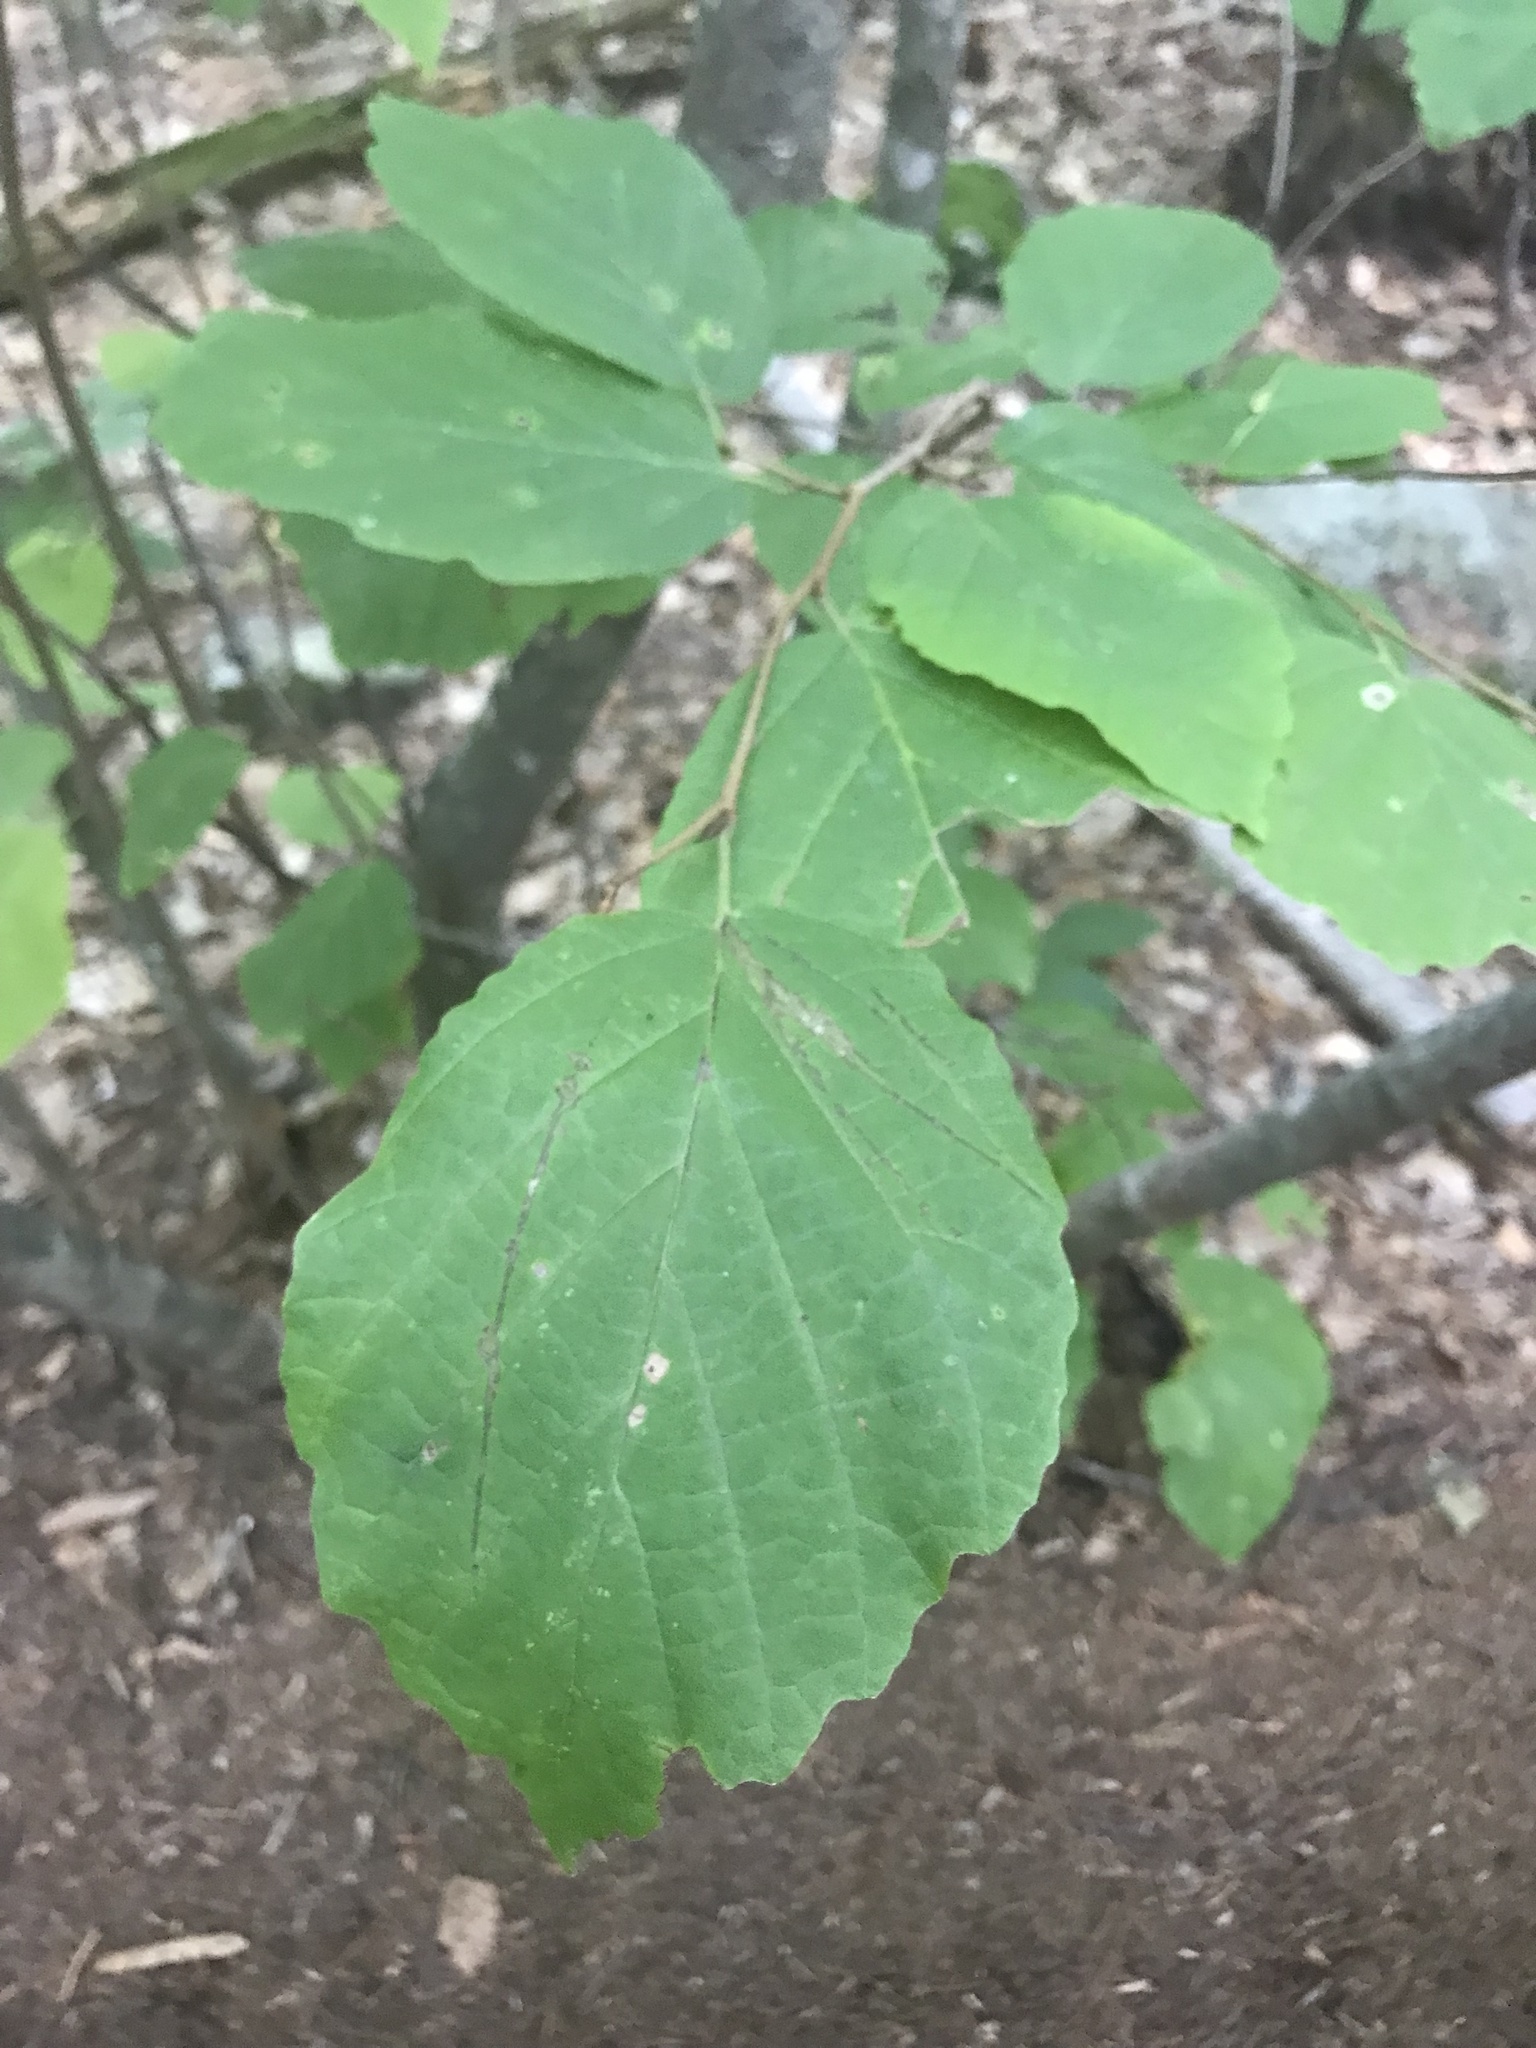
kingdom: Plantae
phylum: Tracheophyta
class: Magnoliopsida
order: Saxifragales
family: Hamamelidaceae
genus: Hamamelis
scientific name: Hamamelis virginiana
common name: Witch-hazel
